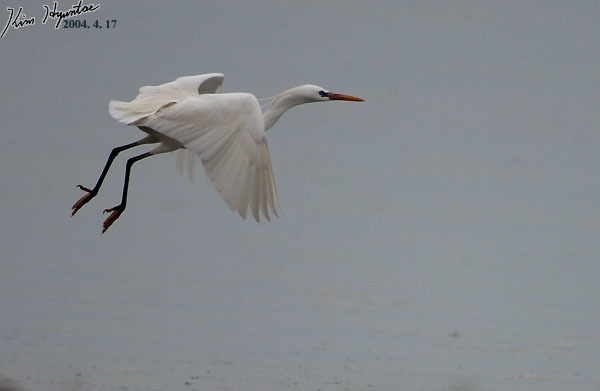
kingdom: Animalia
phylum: Chordata
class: Aves
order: Pelecaniformes
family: Ardeidae
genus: Egretta
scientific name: Egretta eulophotes
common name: Chinese egret
